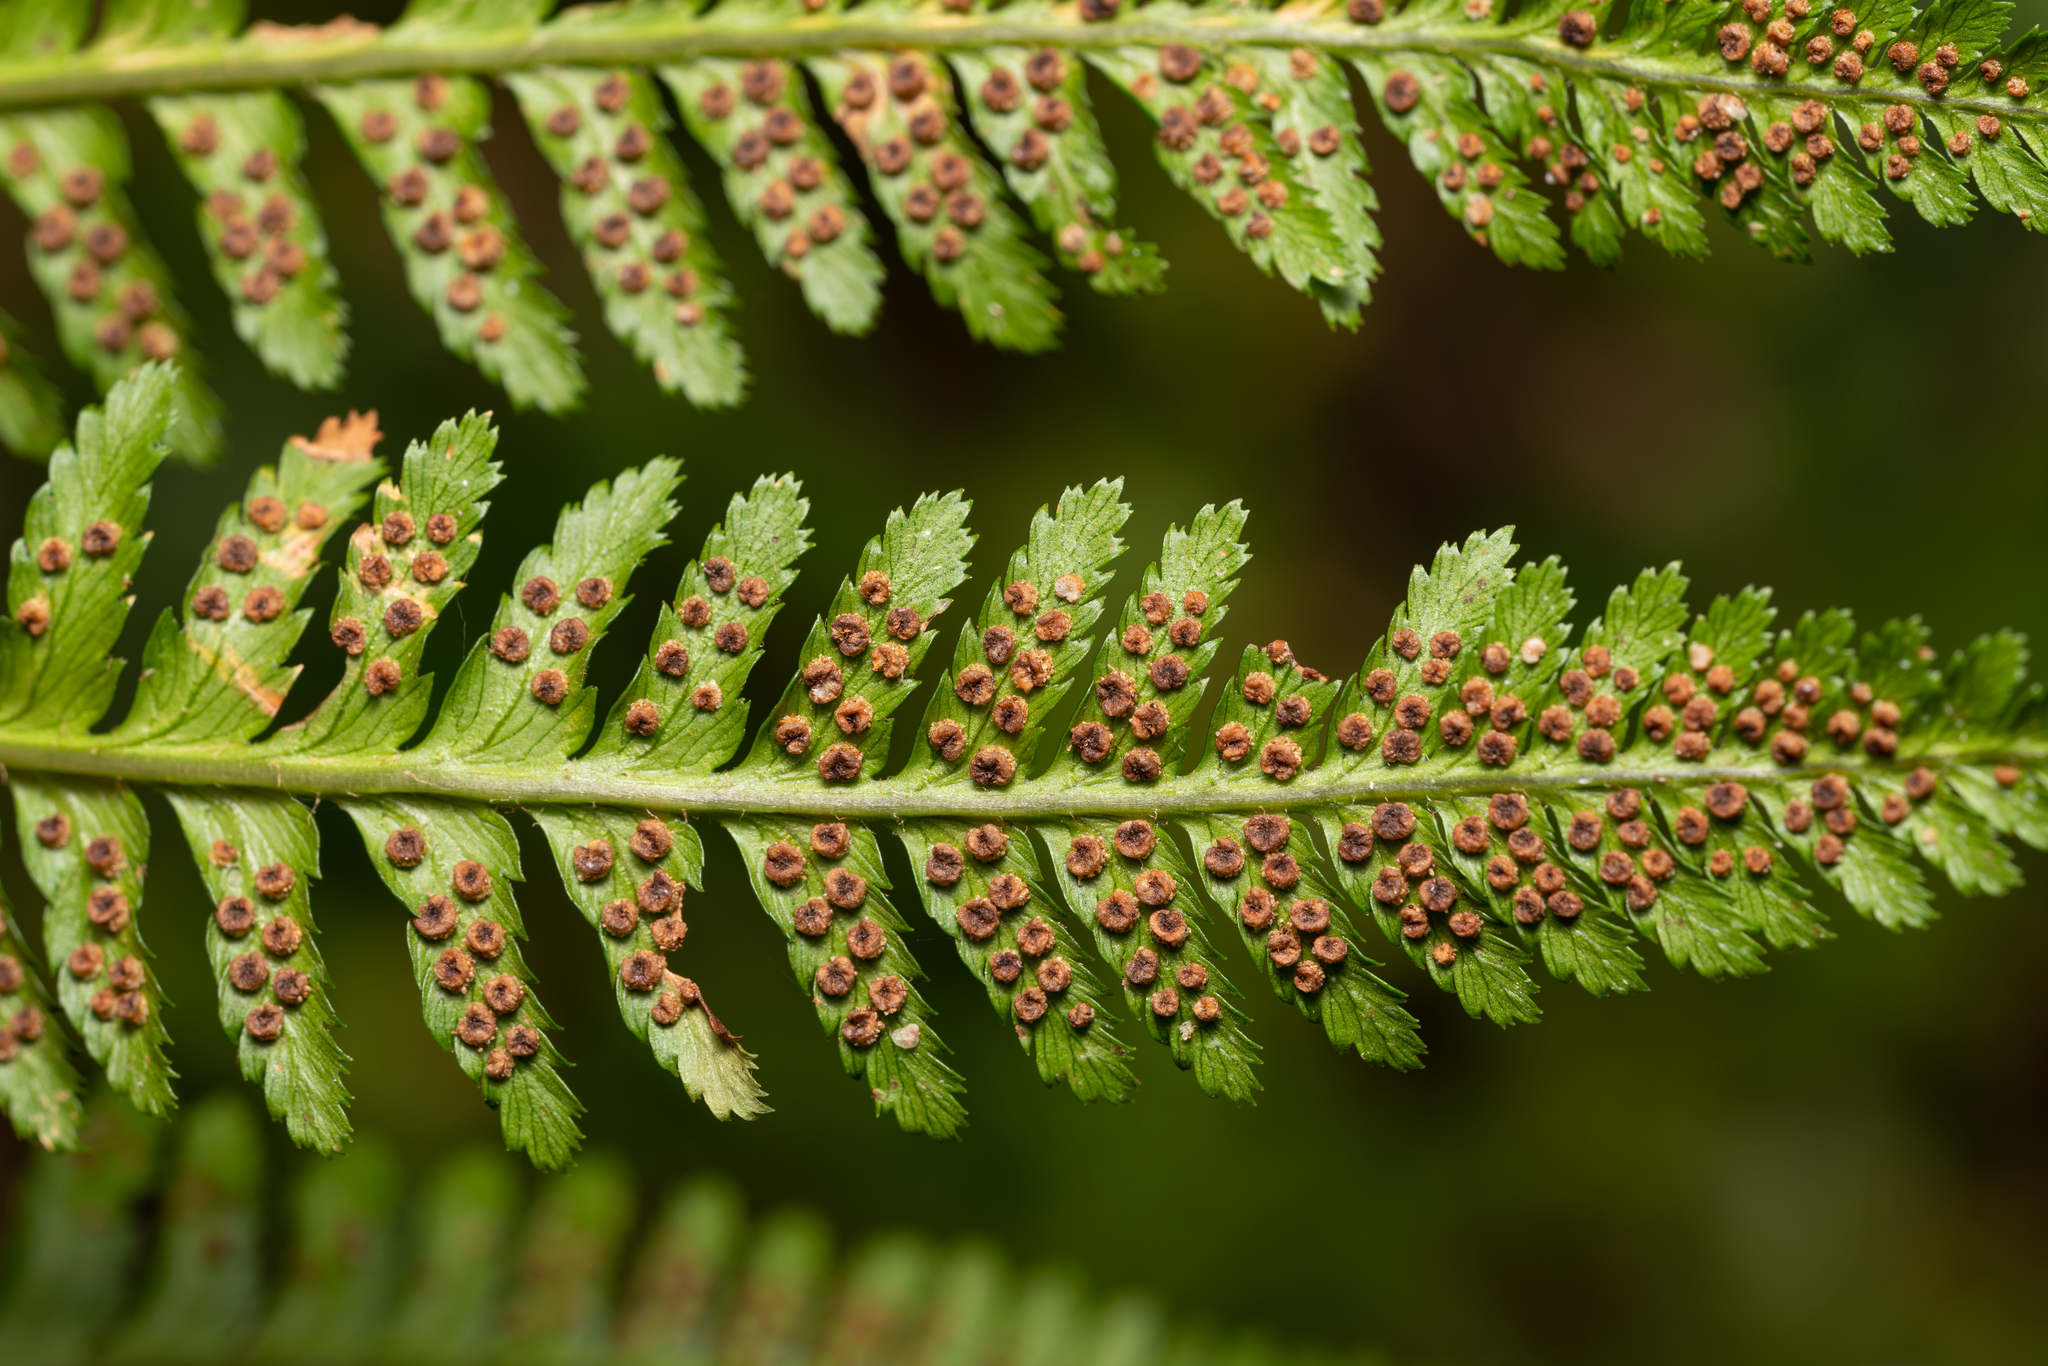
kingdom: Plantae
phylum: Tracheophyta
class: Polypodiopsida
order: Polypodiales
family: Dryopteridaceae
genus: Dryopteris
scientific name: Dryopteris filix-mas
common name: Male fern
